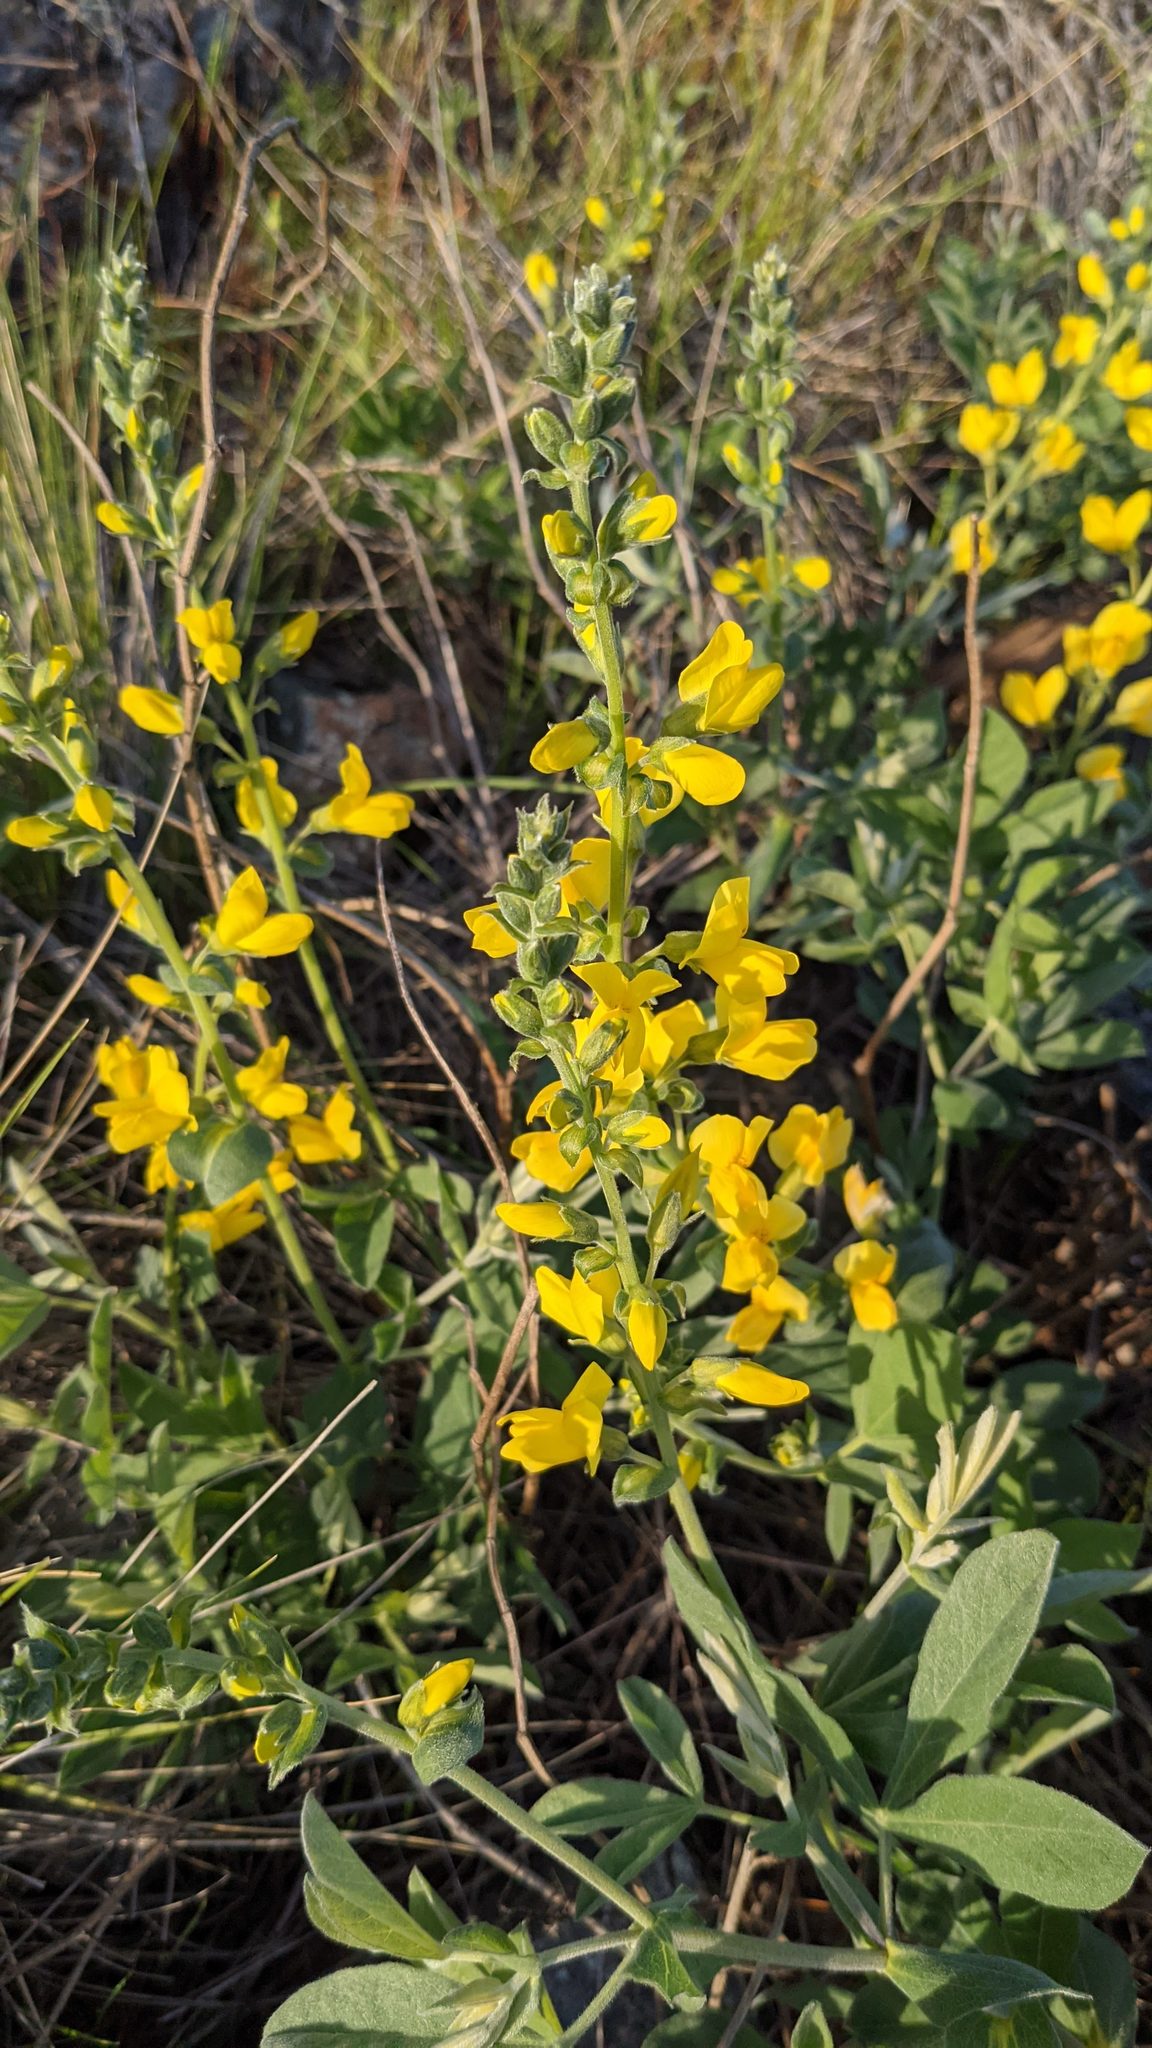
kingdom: Plantae
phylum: Tracheophyta
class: Magnoliopsida
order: Fabales
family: Fabaceae
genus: Thermopsis
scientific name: Thermopsis californica
